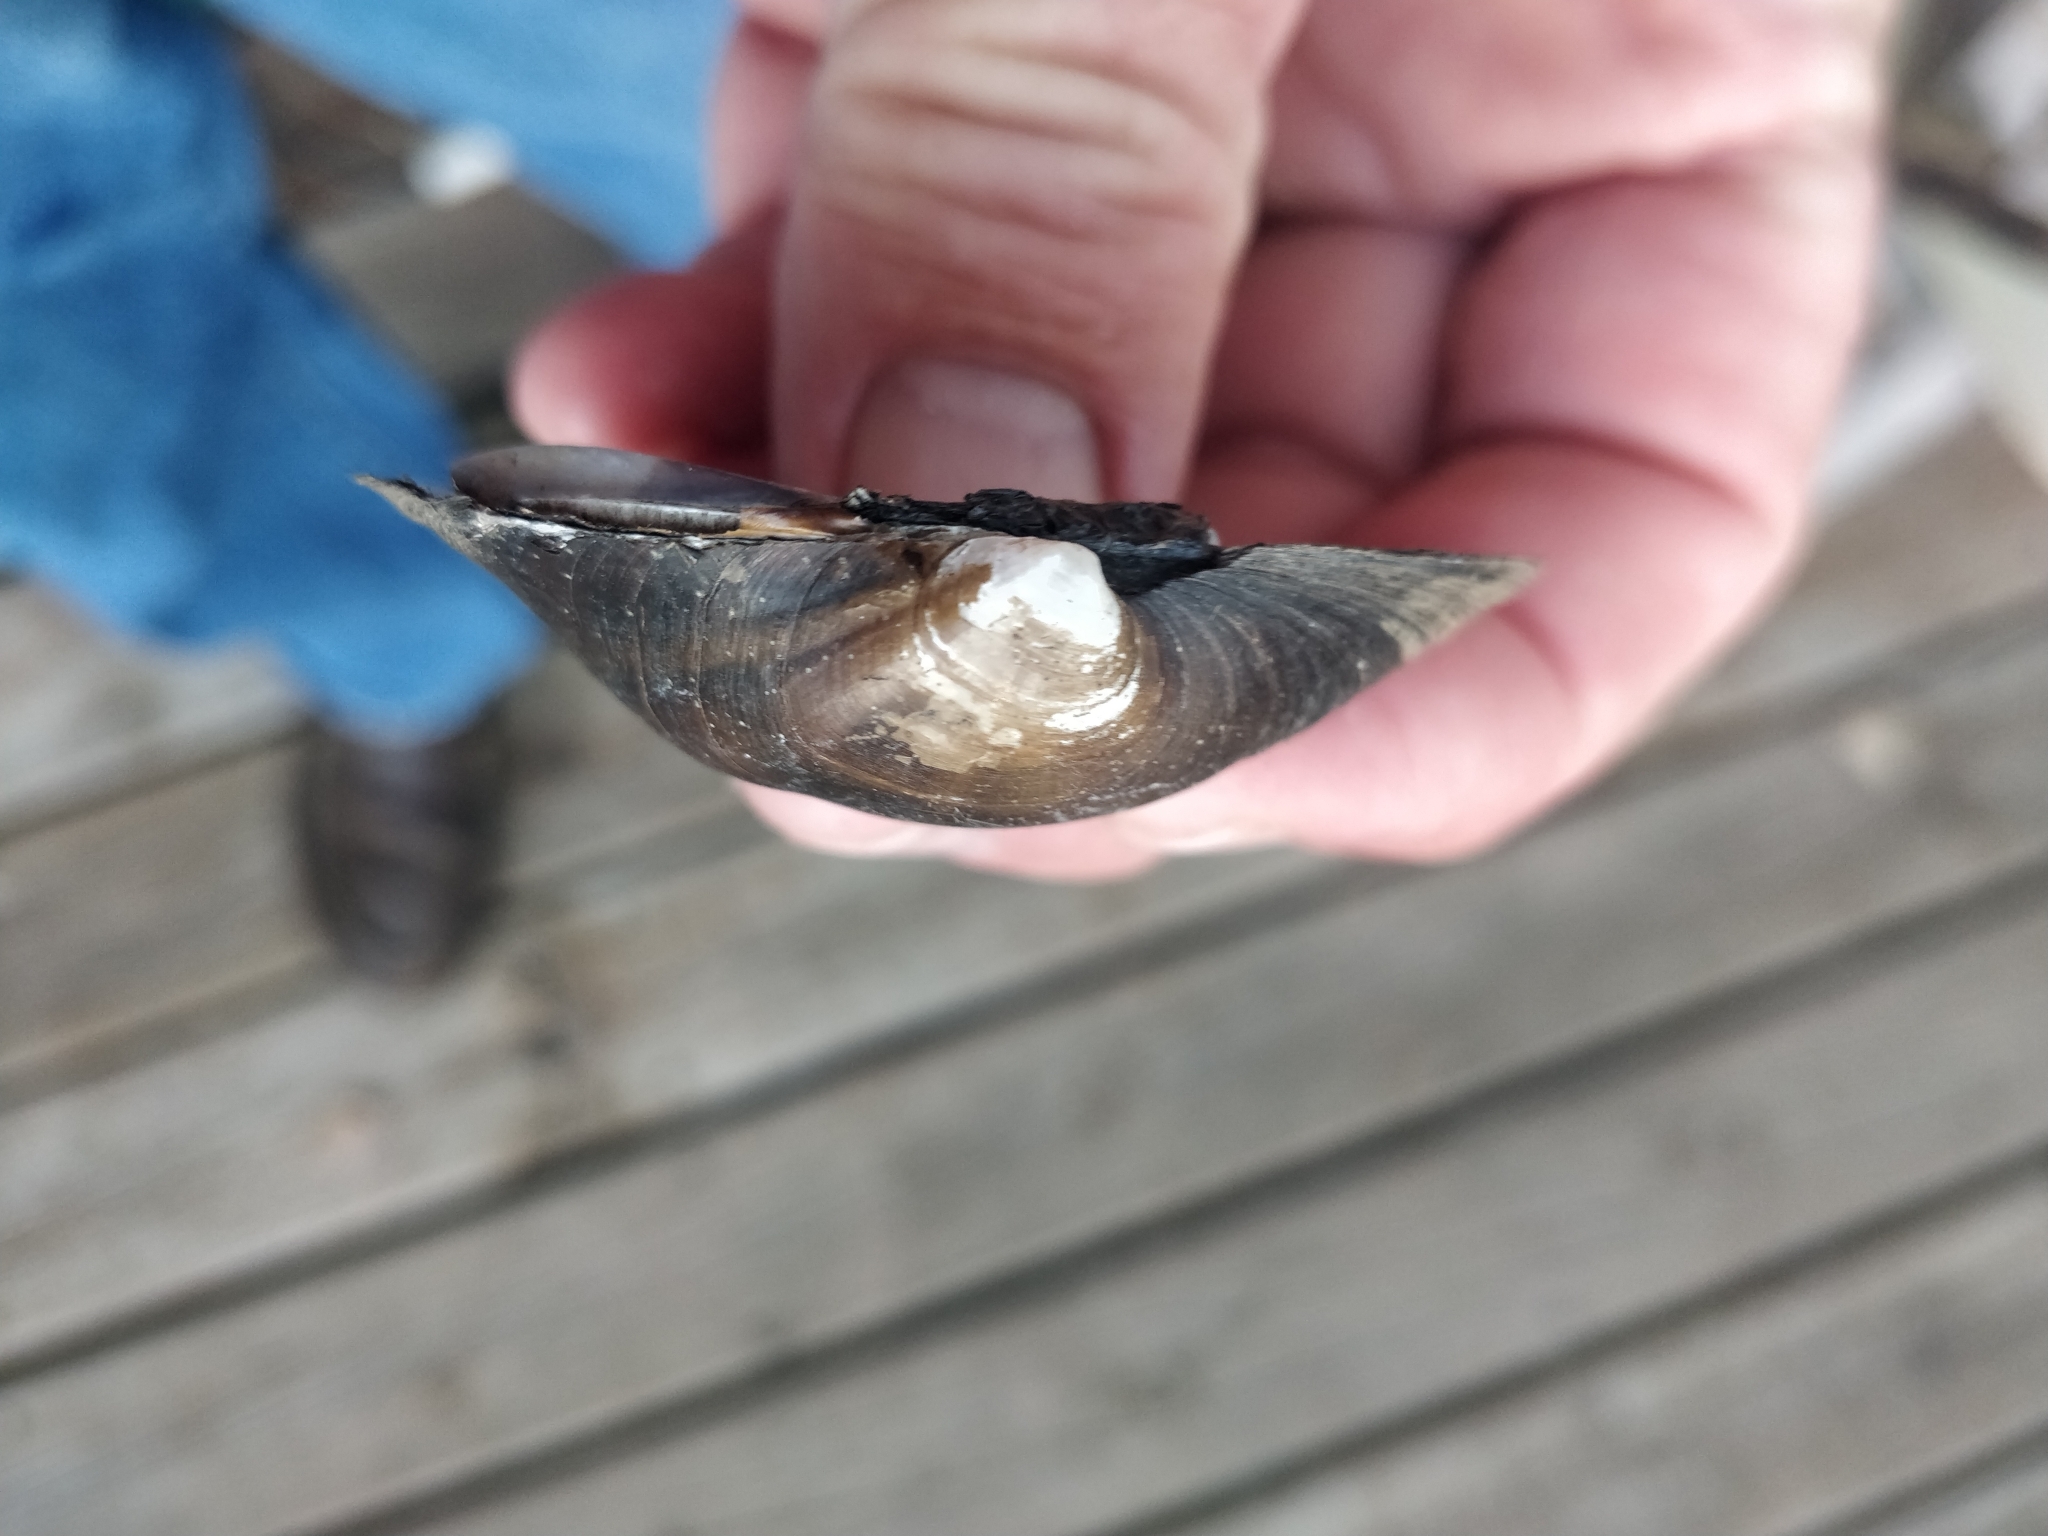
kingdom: Animalia
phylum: Mollusca
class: Bivalvia
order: Unionida
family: Unionidae
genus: Cyclonaias
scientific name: Cyclonaias pustulosa
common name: Pimpleback
